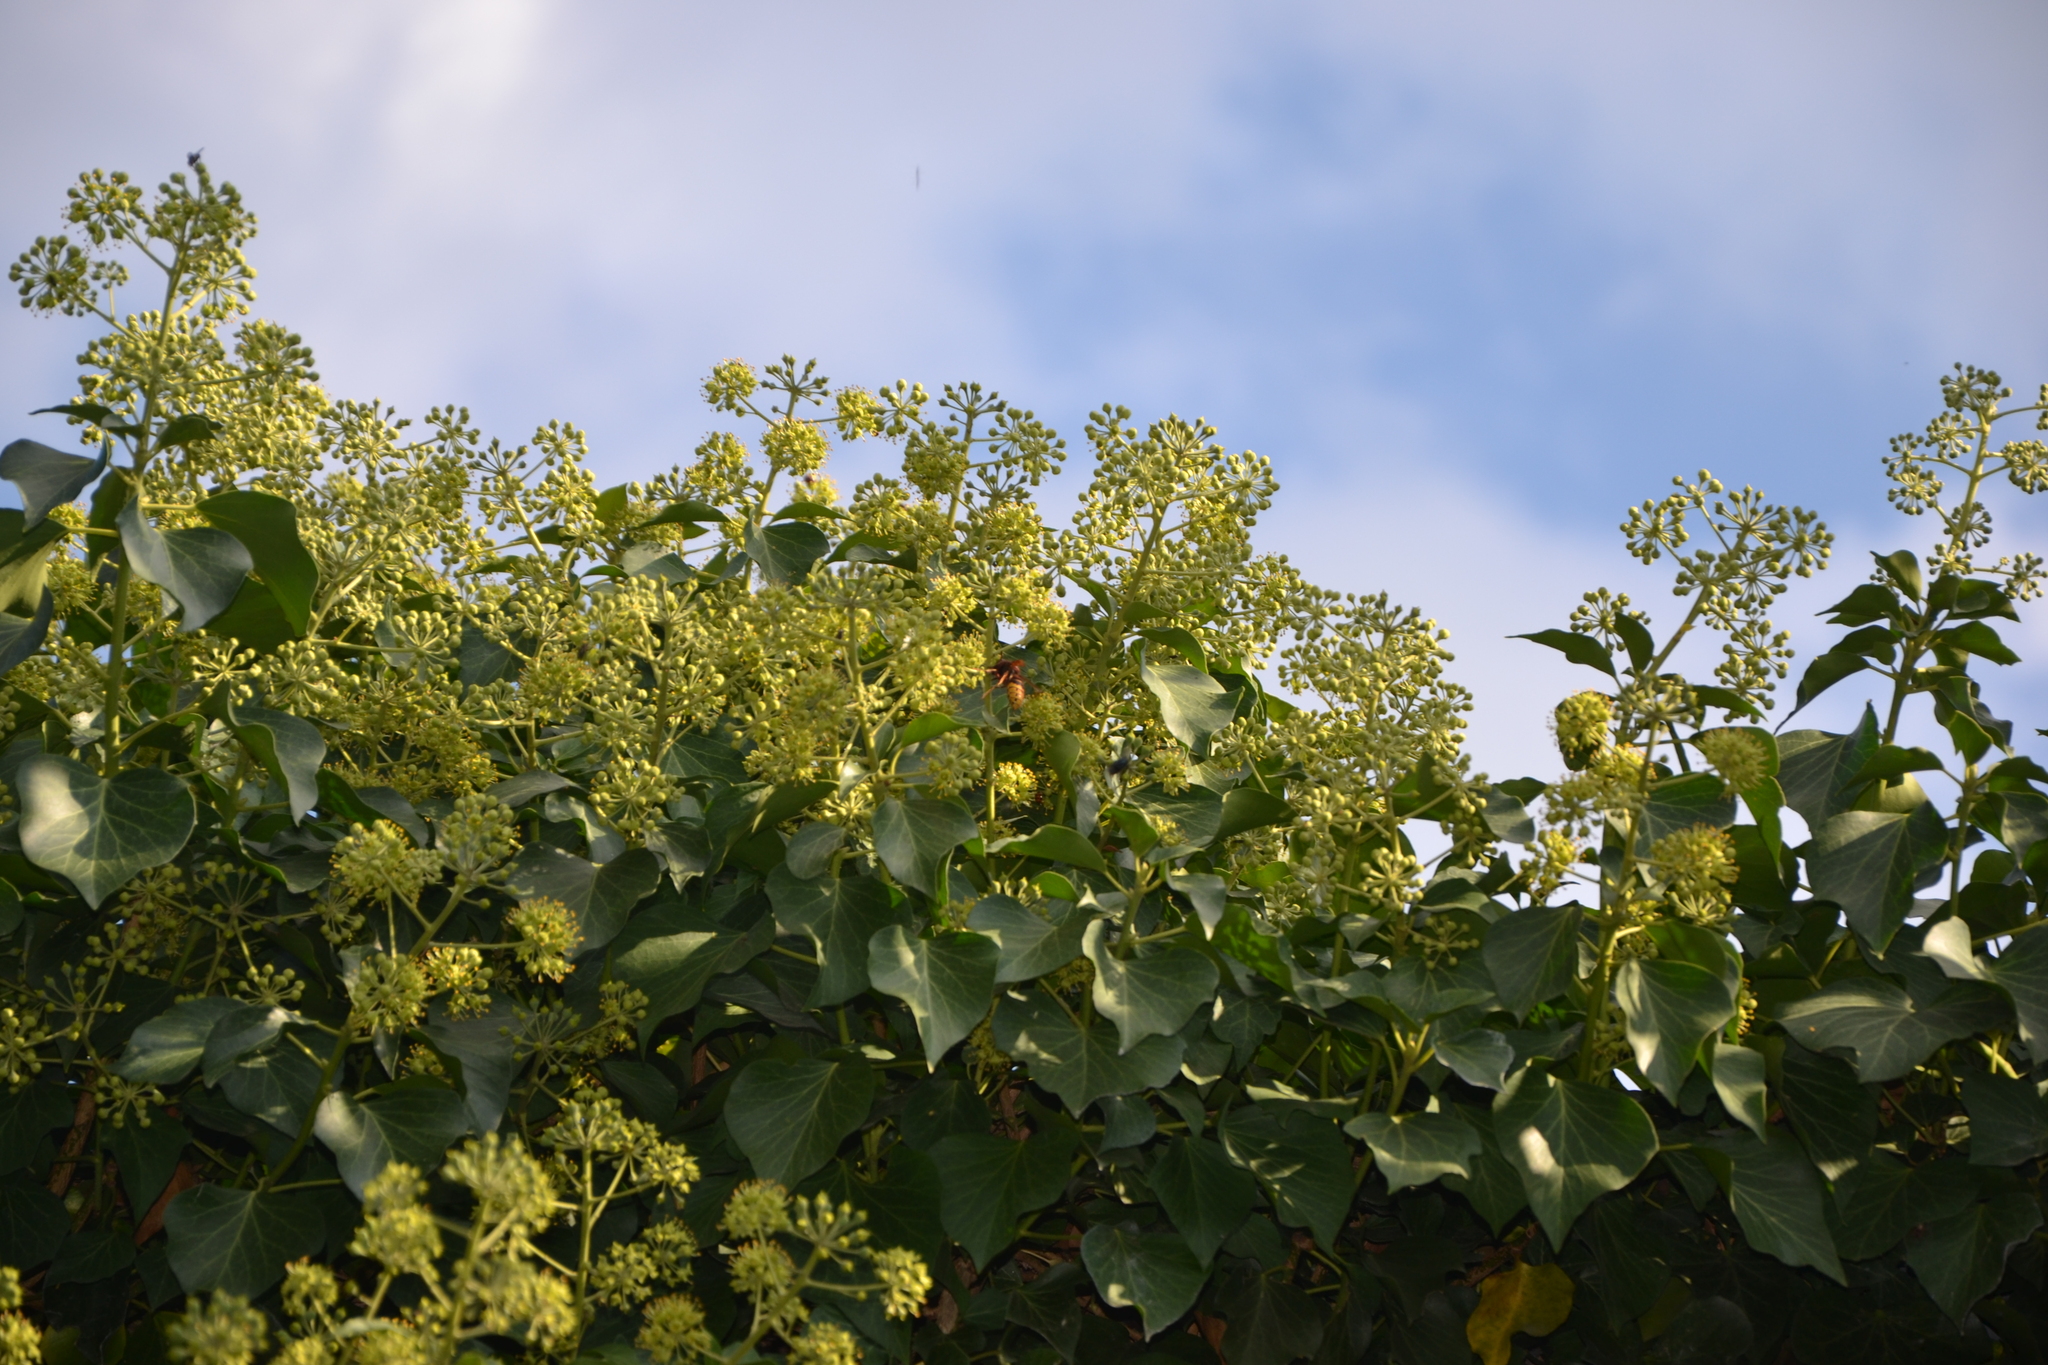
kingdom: Animalia
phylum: Arthropoda
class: Insecta
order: Hymenoptera
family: Vespidae
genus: Vespa
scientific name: Vespa crabro
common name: Hornet
